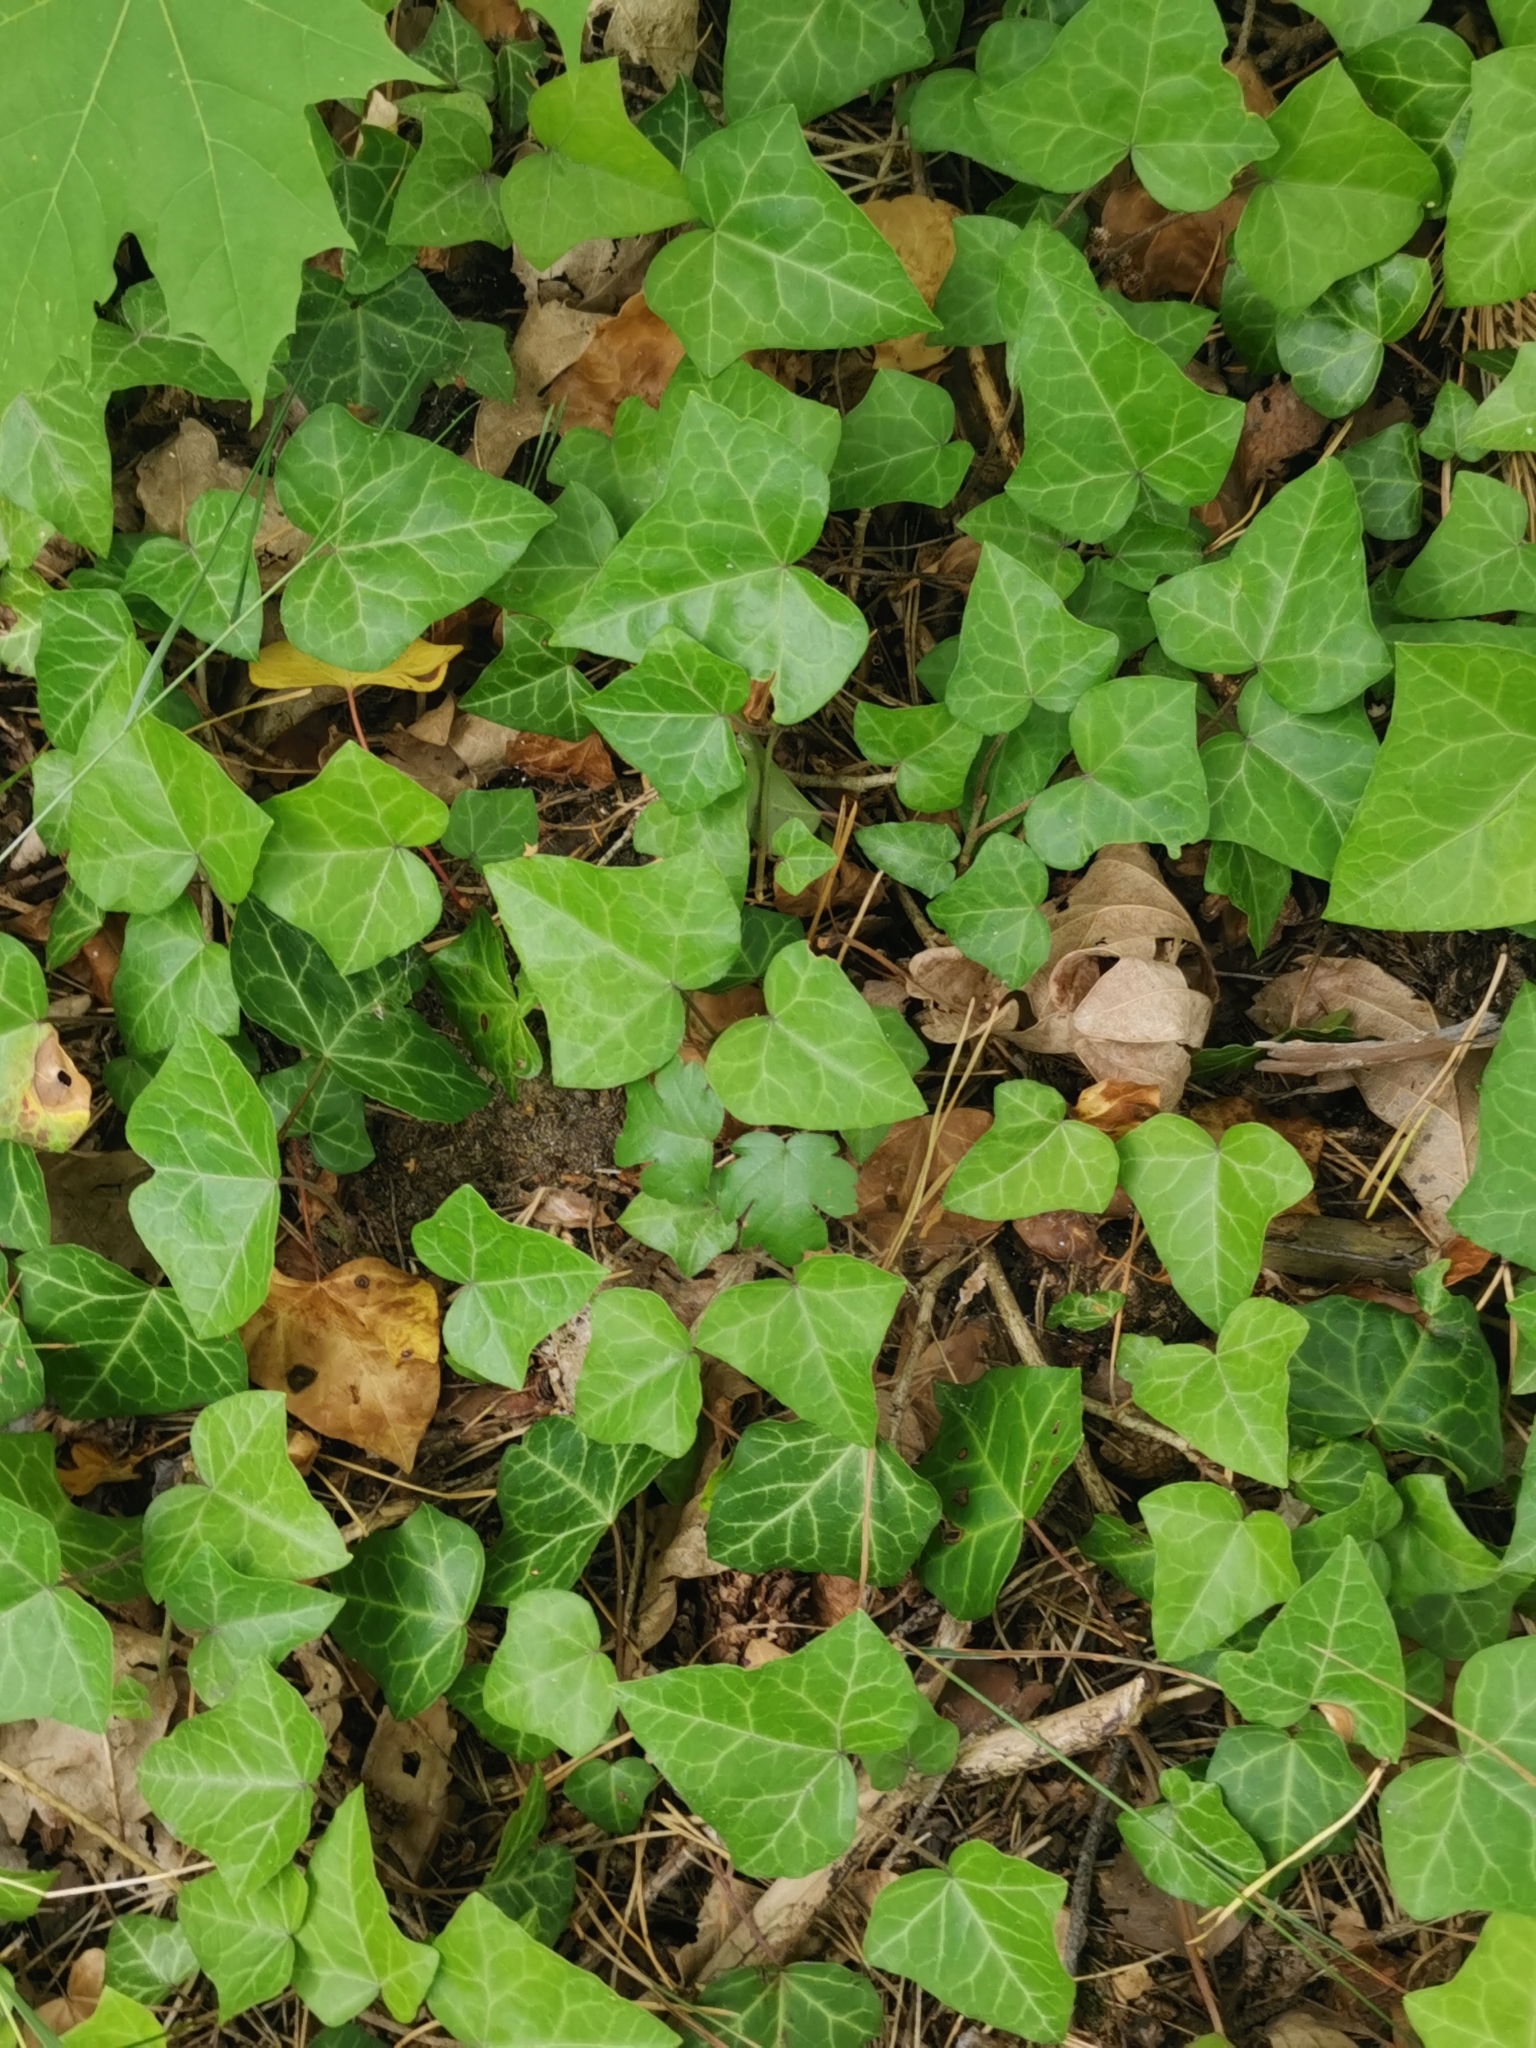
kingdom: Plantae
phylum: Tracheophyta
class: Magnoliopsida
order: Apiales
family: Araliaceae
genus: Hedera
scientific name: Hedera helix
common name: Ivy
